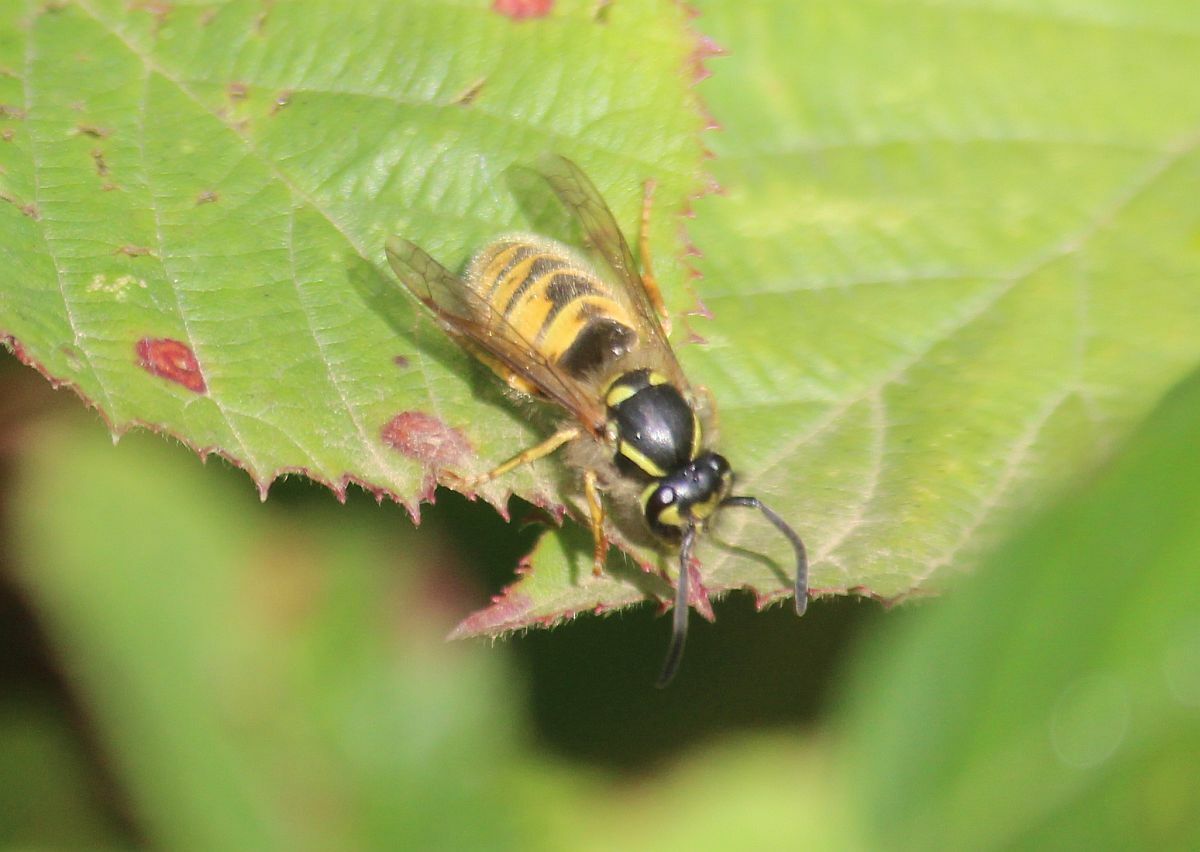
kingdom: Animalia
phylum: Arthropoda
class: Insecta
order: Hymenoptera
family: Vespidae
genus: Vespula
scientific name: Vespula vulgaris
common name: Common wasp
